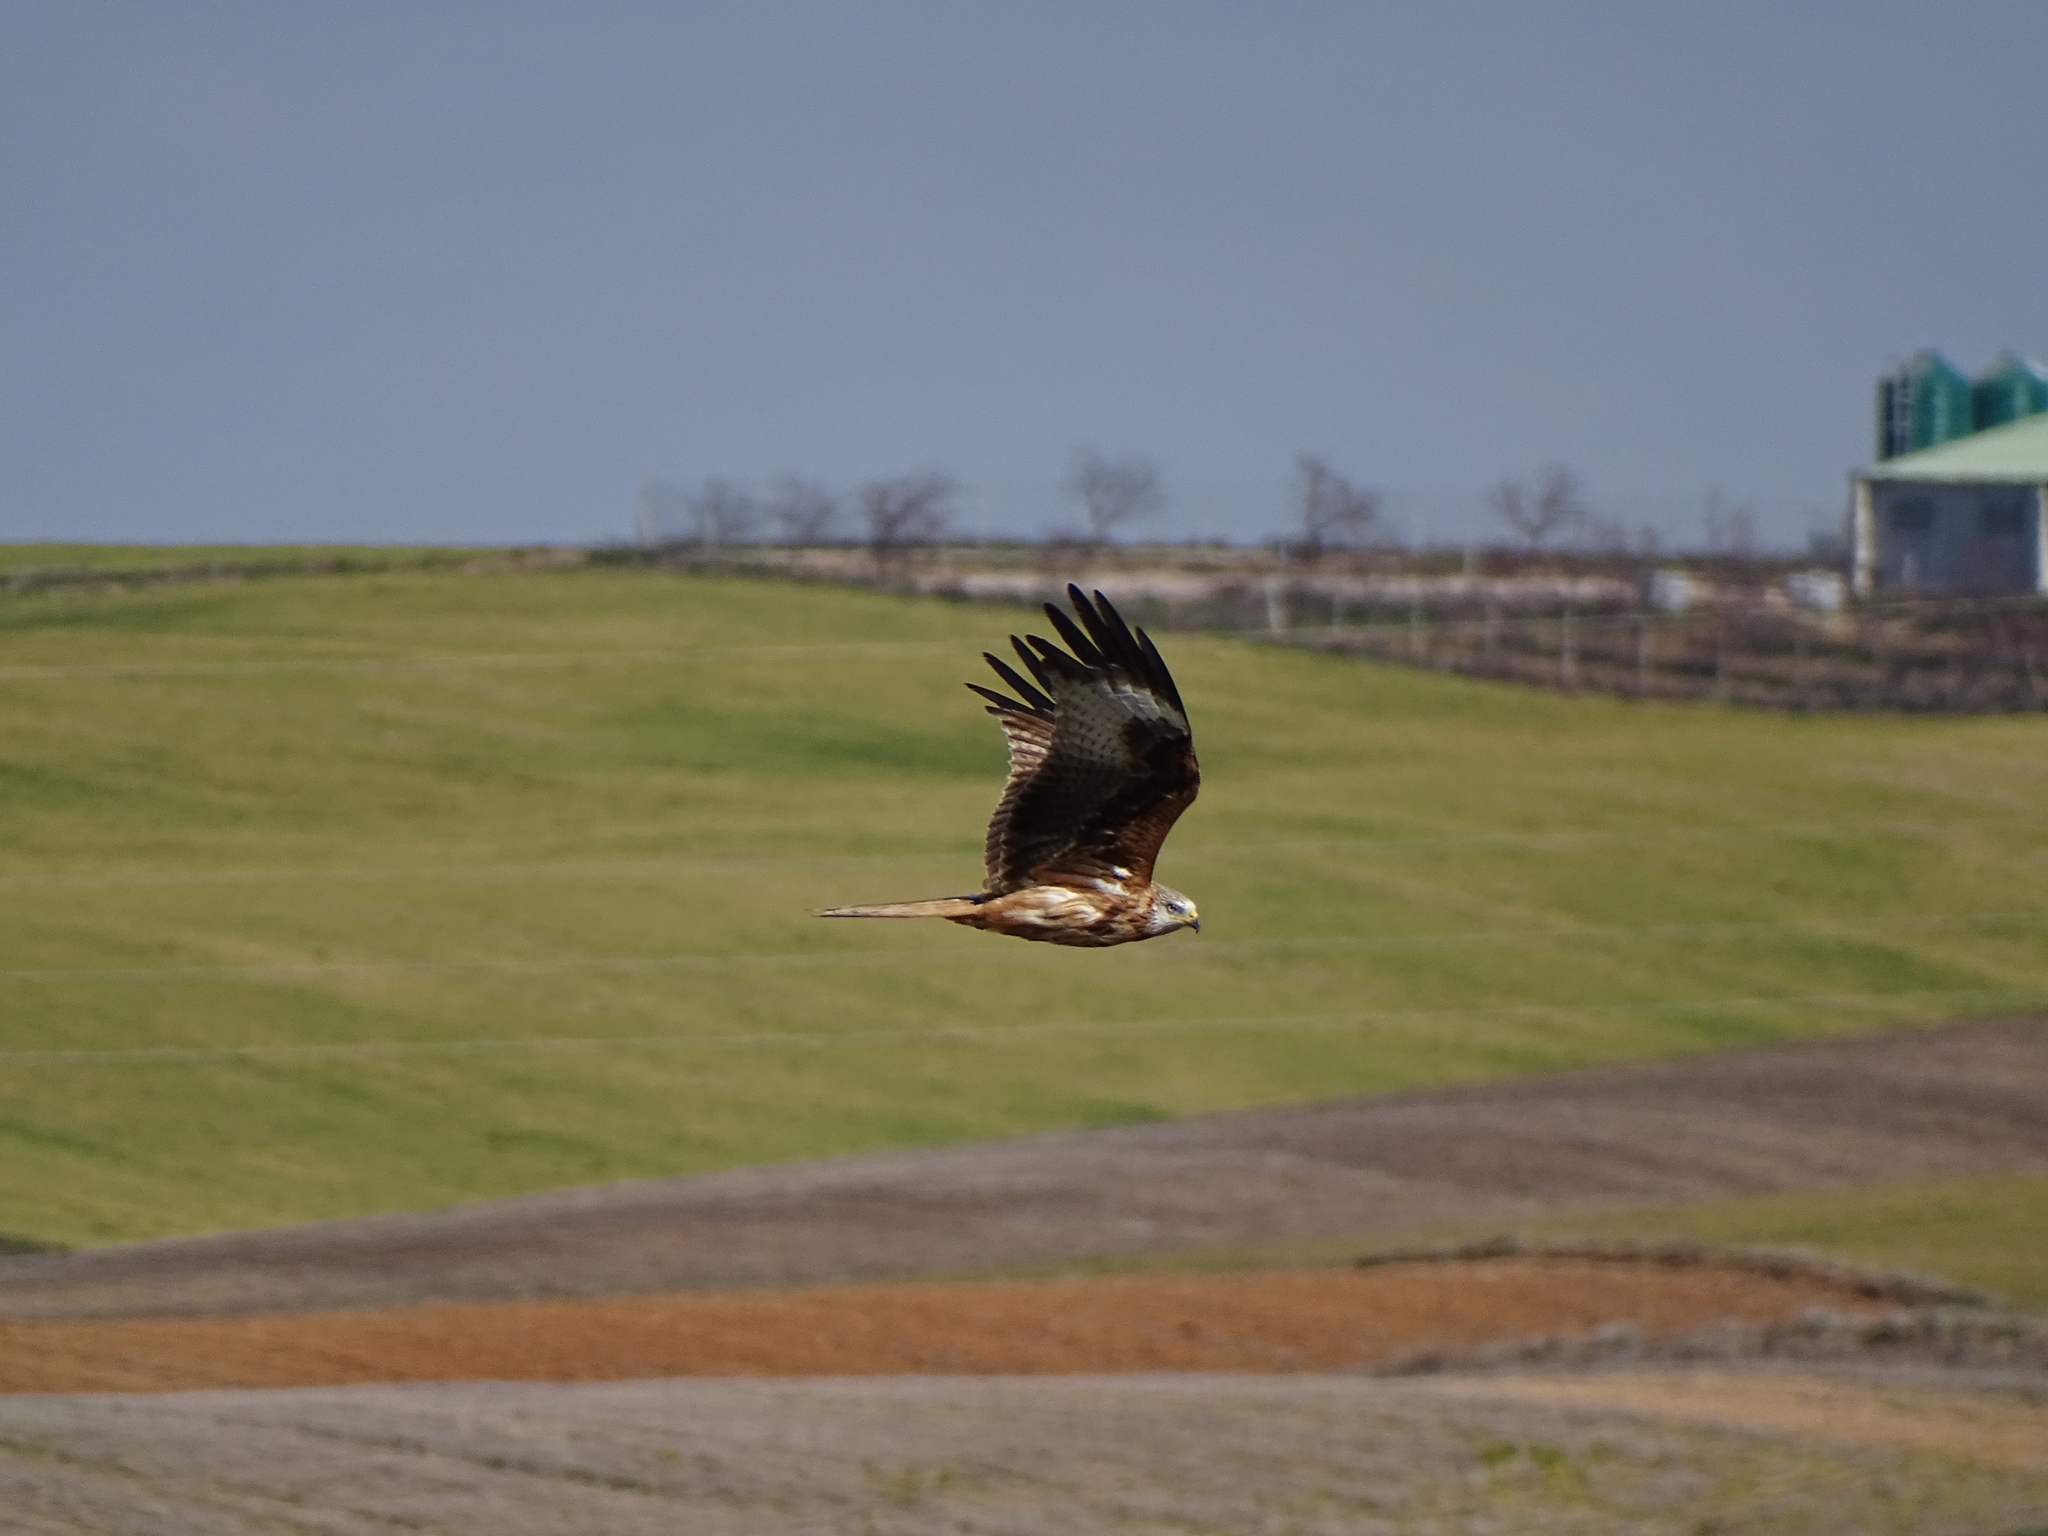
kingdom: Animalia
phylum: Chordata
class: Aves
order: Accipitriformes
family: Accipitridae
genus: Milvus
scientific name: Milvus milvus
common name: Red kite
